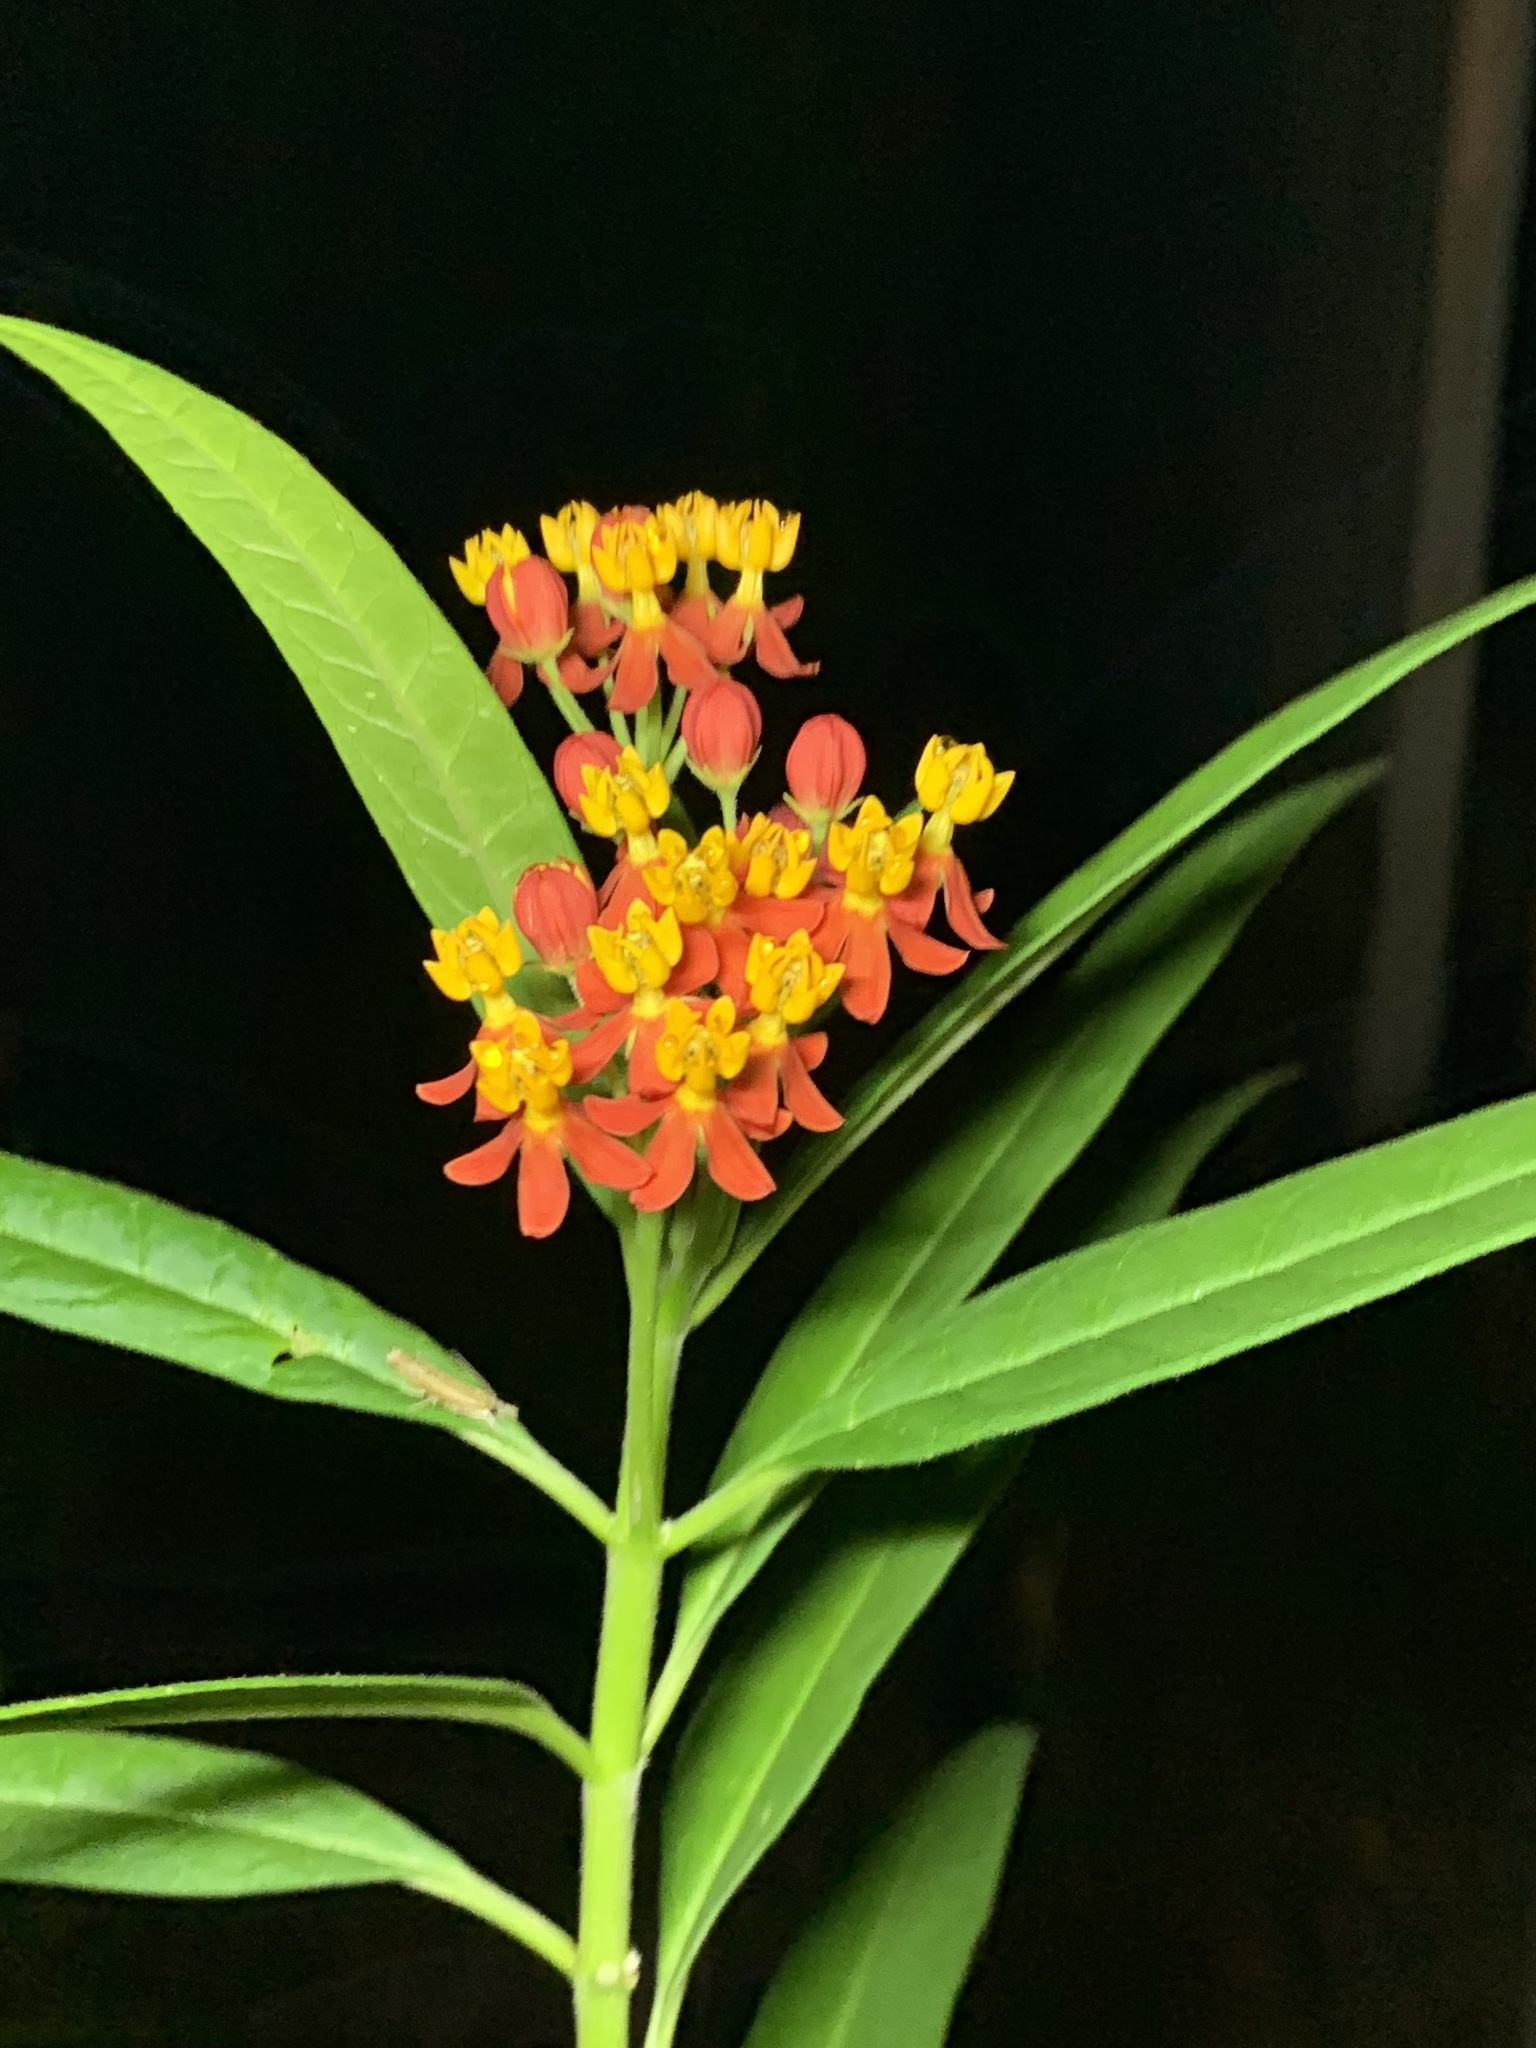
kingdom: Plantae
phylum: Tracheophyta
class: Magnoliopsida
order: Gentianales
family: Apocynaceae
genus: Asclepias
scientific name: Asclepias curassavica
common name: Bloodflower
